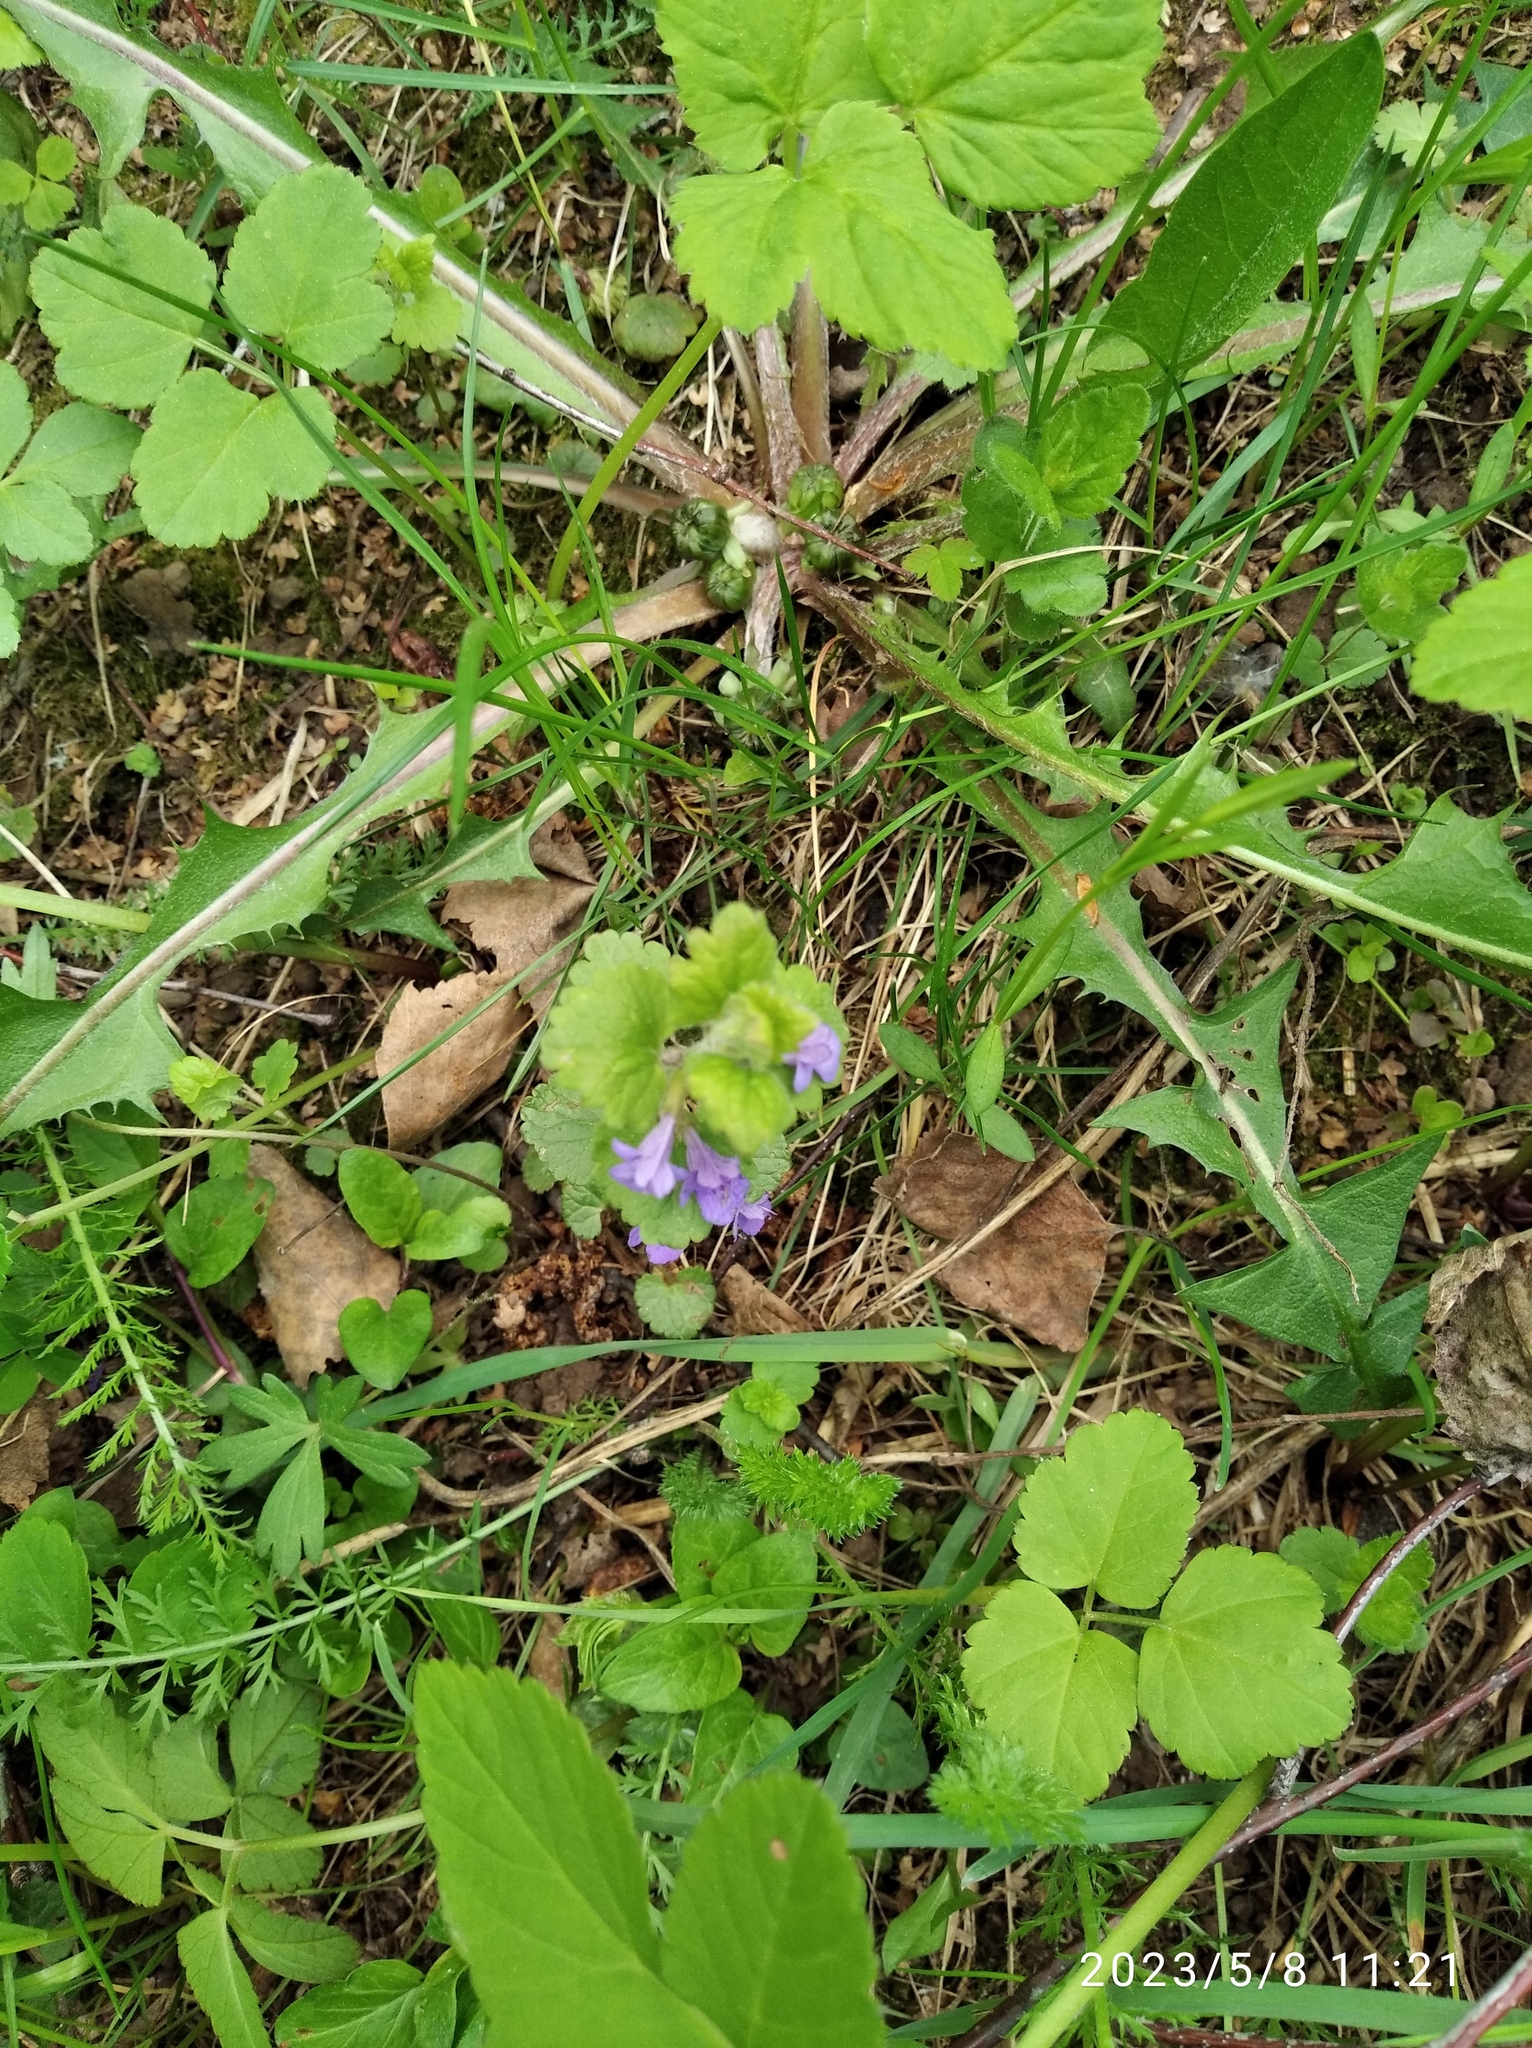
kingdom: Plantae
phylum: Tracheophyta
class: Magnoliopsida
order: Lamiales
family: Lamiaceae
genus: Glechoma
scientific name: Glechoma hederacea
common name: Ground ivy
